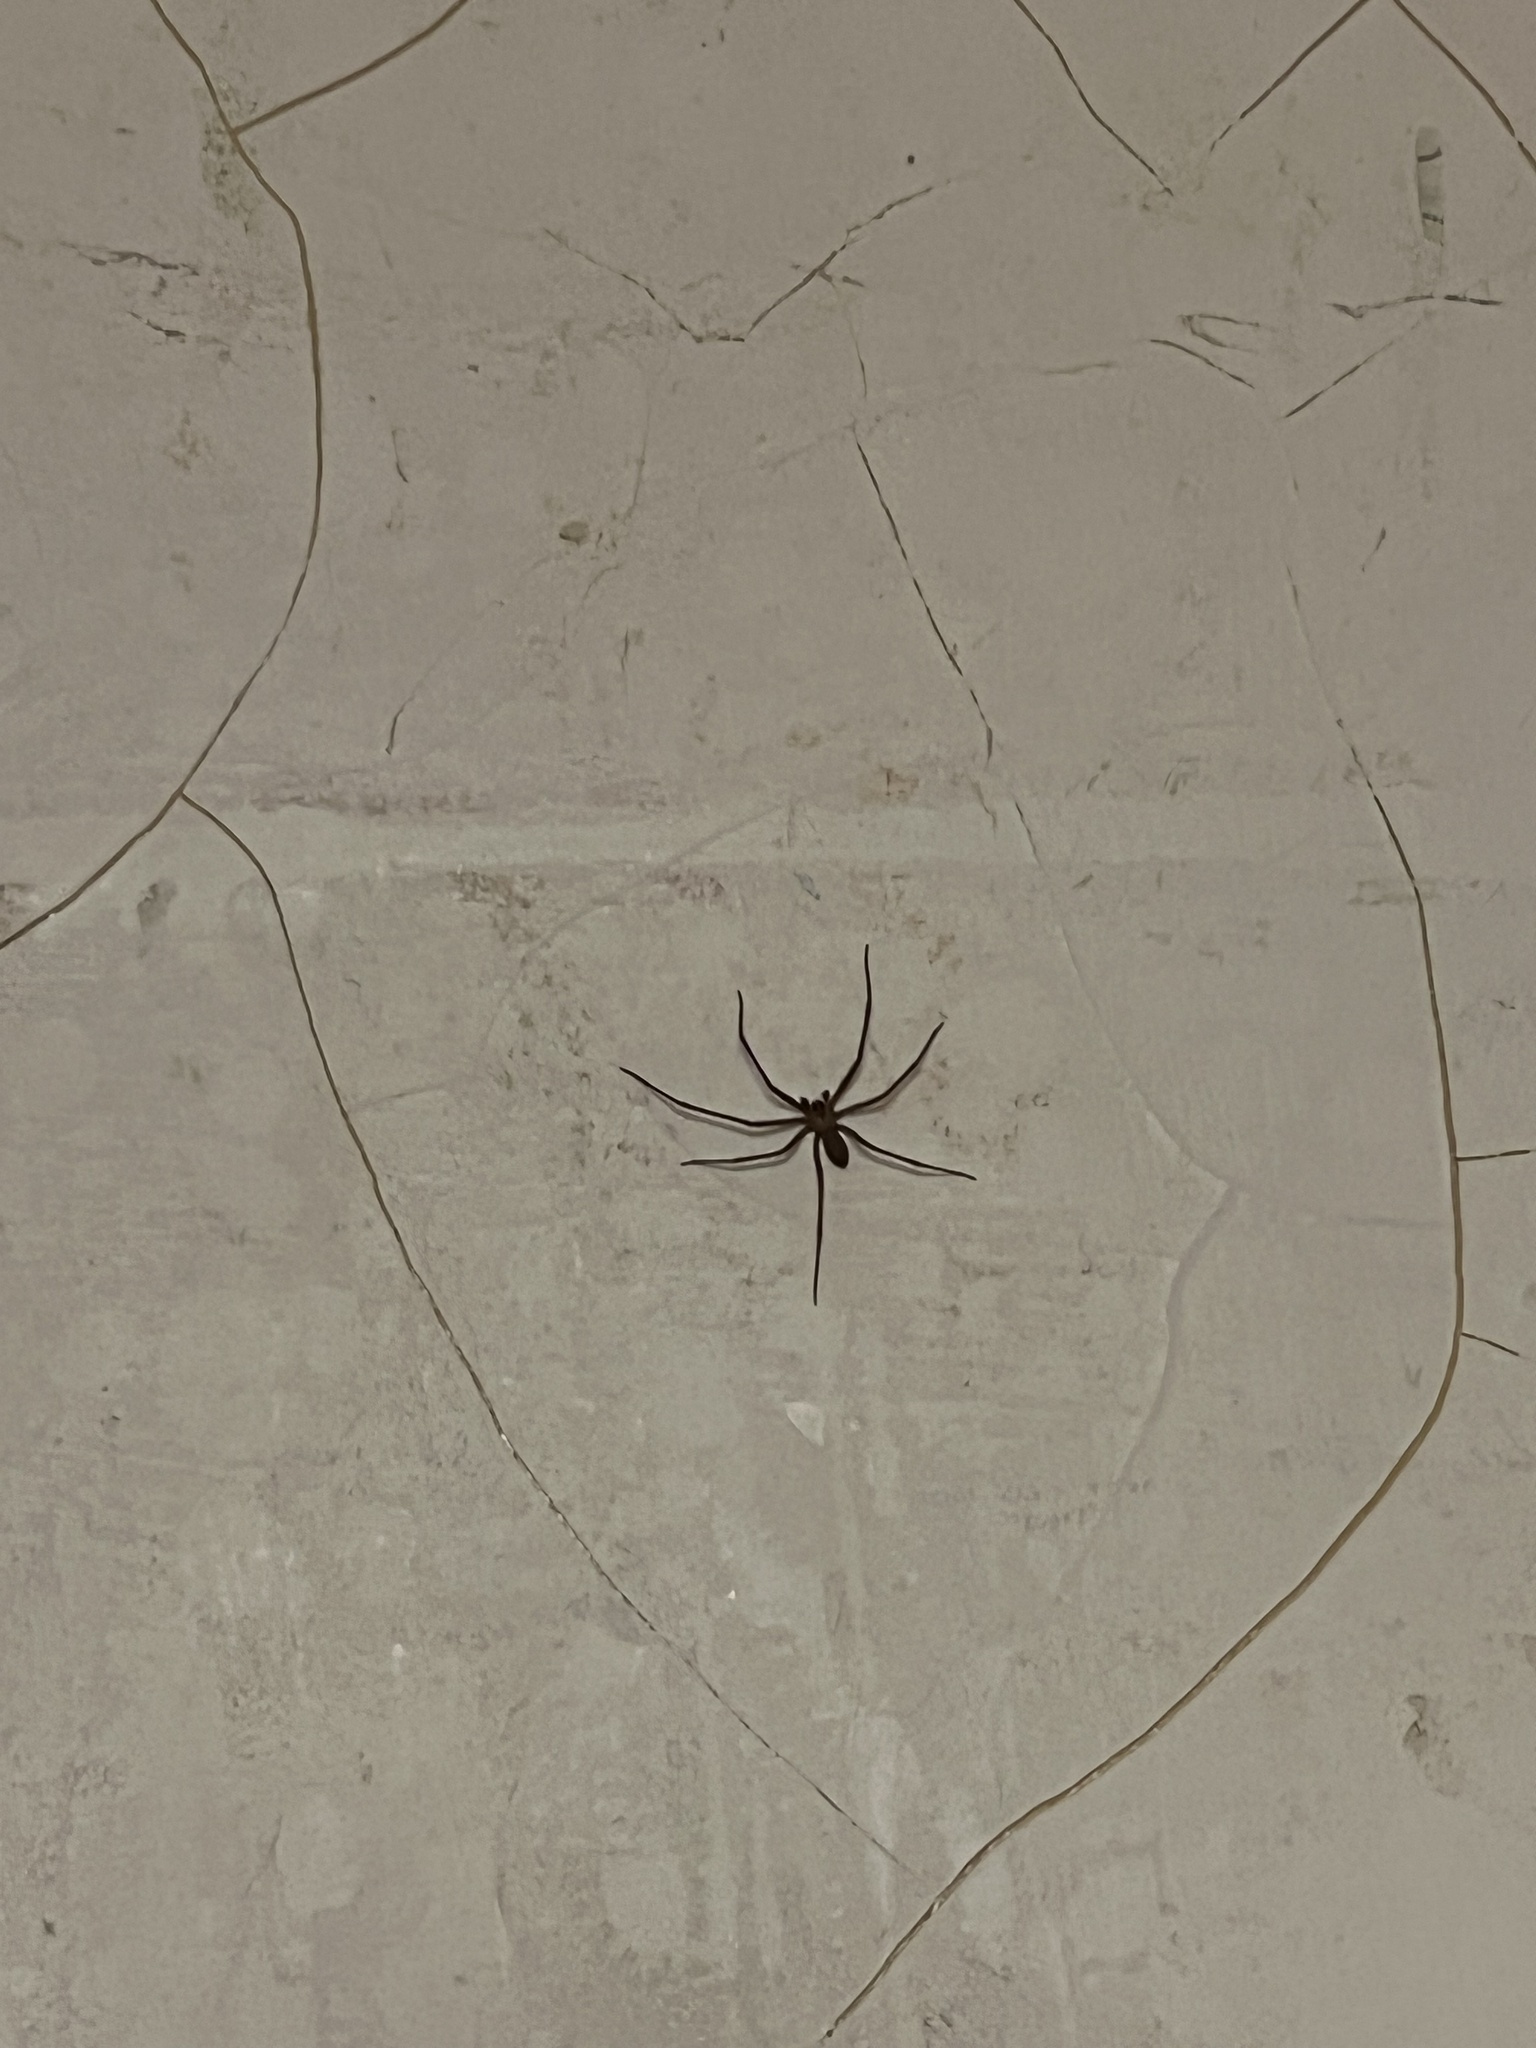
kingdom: Animalia
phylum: Arthropoda
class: Arachnida
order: Araneae
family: Sicariidae
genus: Loxosceles
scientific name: Loxosceles reclusa
